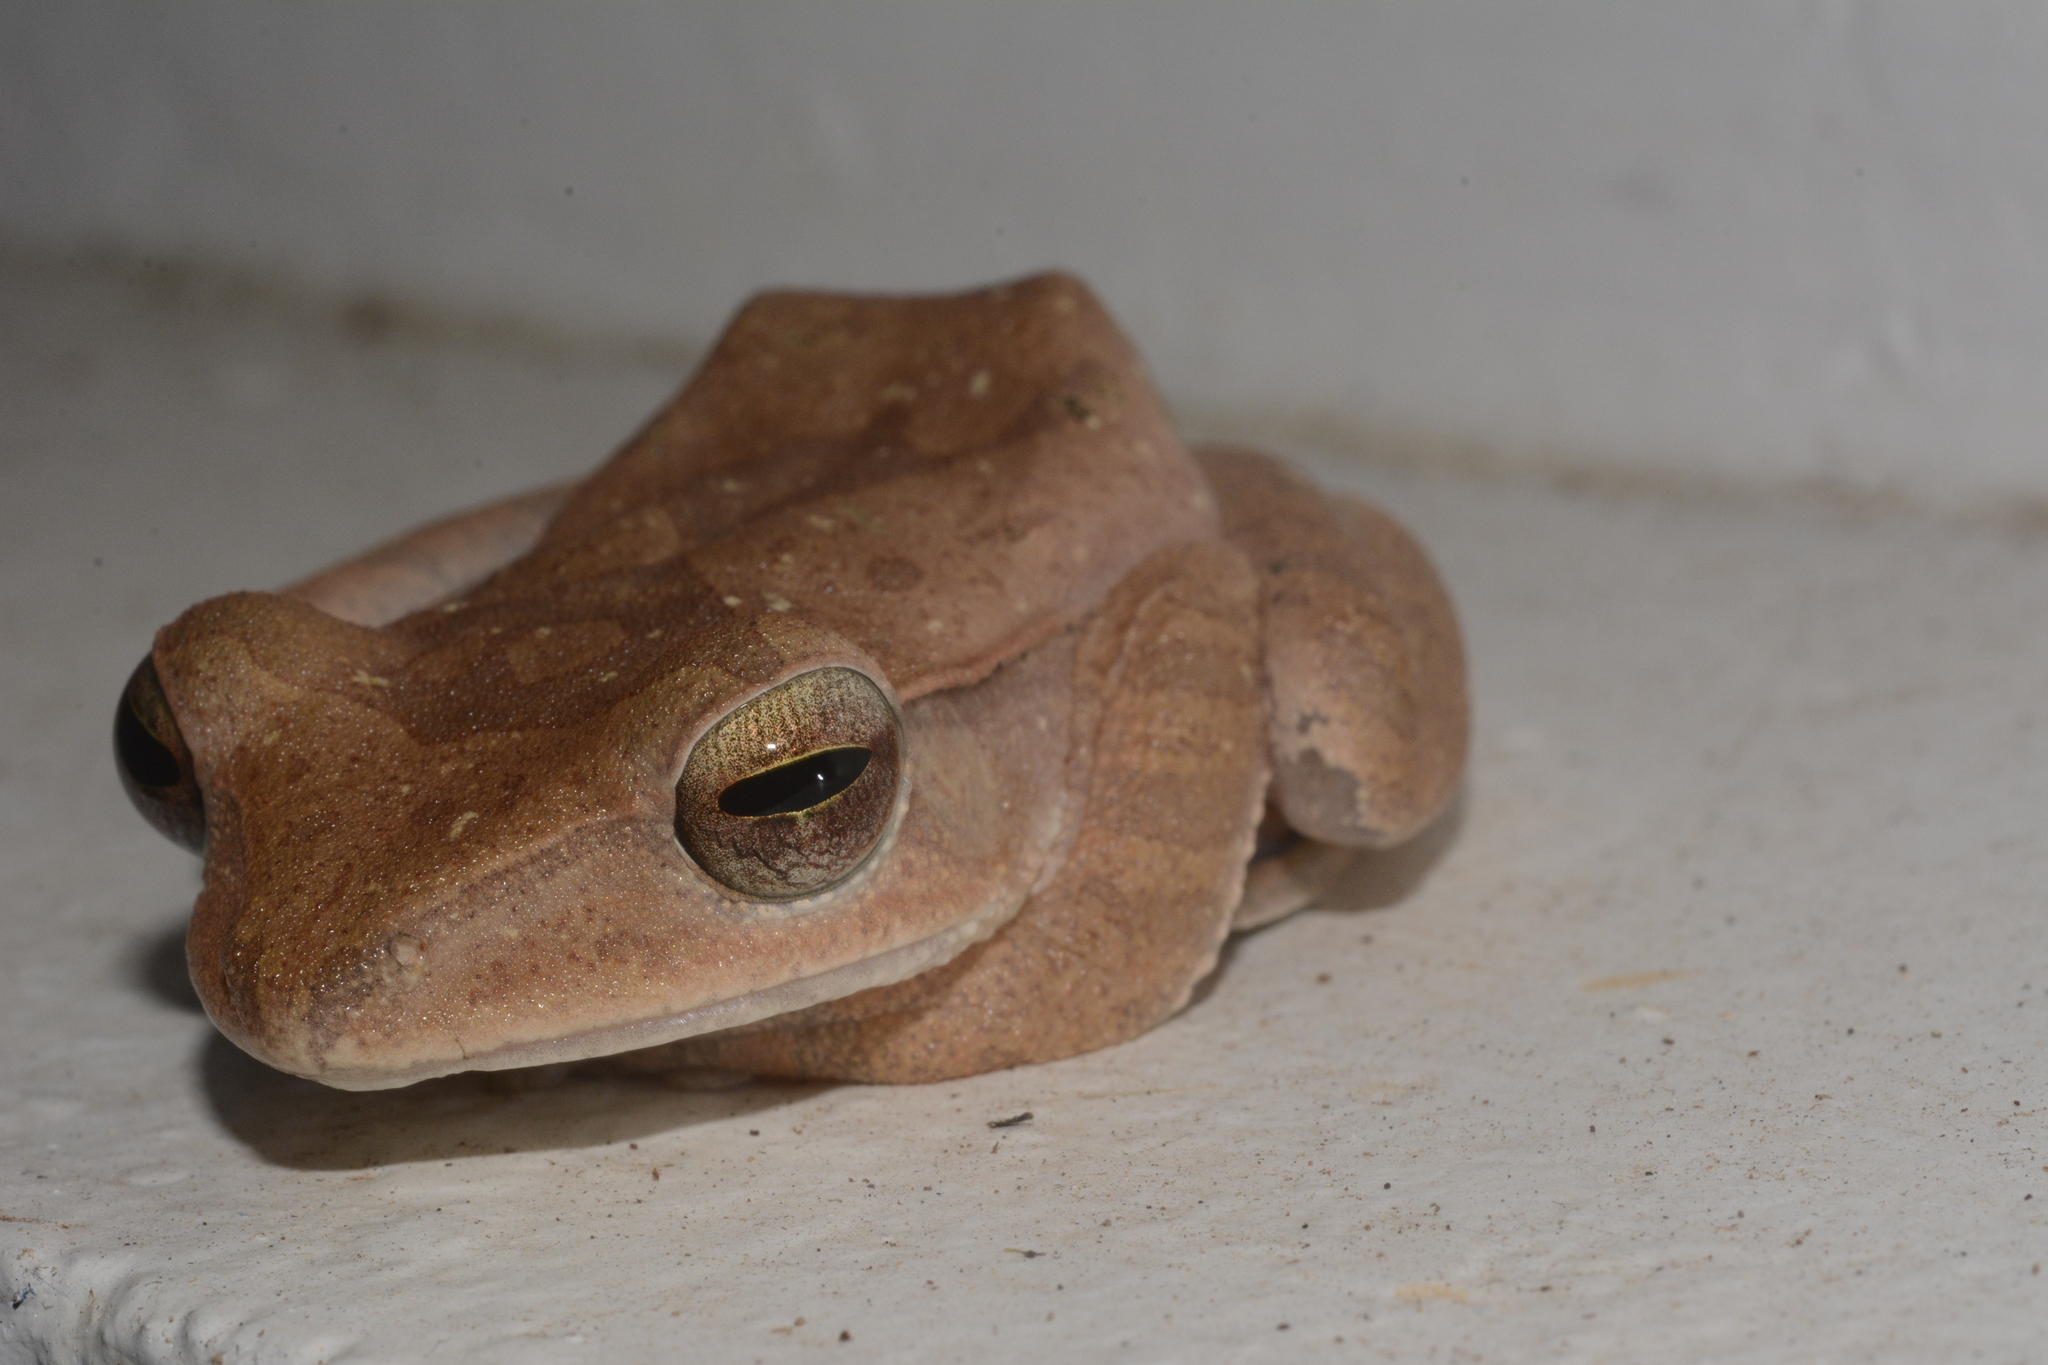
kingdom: Animalia
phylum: Chordata
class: Amphibia
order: Anura
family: Rhacophoridae
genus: Polypedates
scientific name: Polypedates occidentalis
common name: Charpa tree frog
